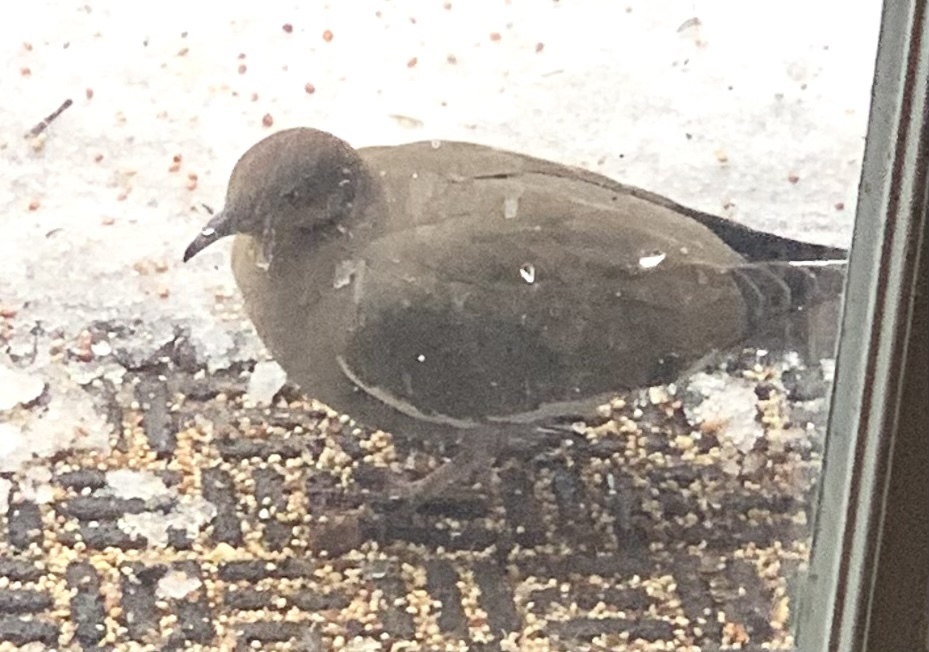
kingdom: Animalia
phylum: Chordata
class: Aves
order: Columbiformes
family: Columbidae
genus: Zenaida
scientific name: Zenaida asiatica
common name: White-winged dove
